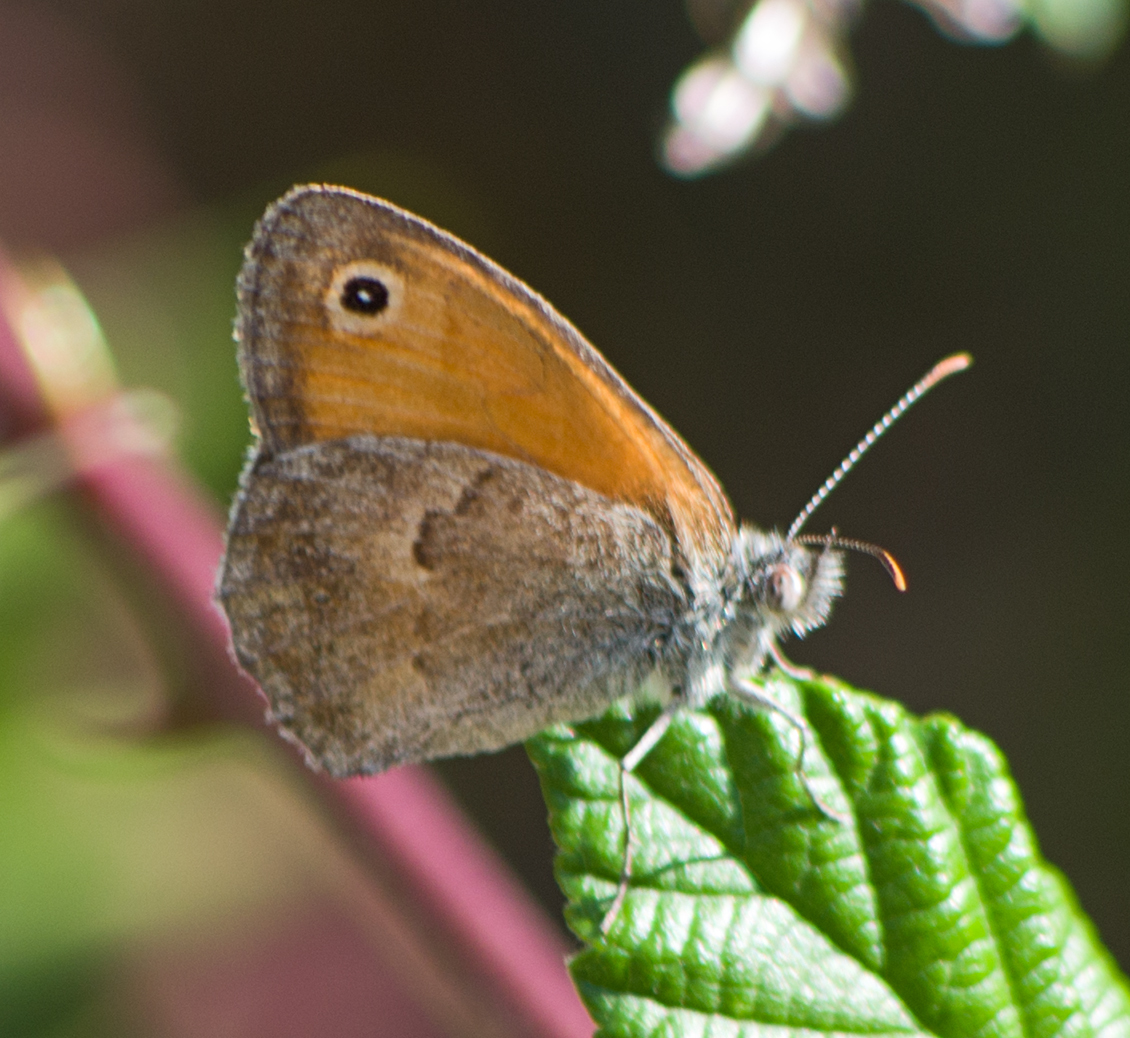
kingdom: Animalia
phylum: Arthropoda
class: Insecta
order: Lepidoptera
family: Nymphalidae
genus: Coenonympha
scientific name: Coenonympha pamphilus
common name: Small heath
